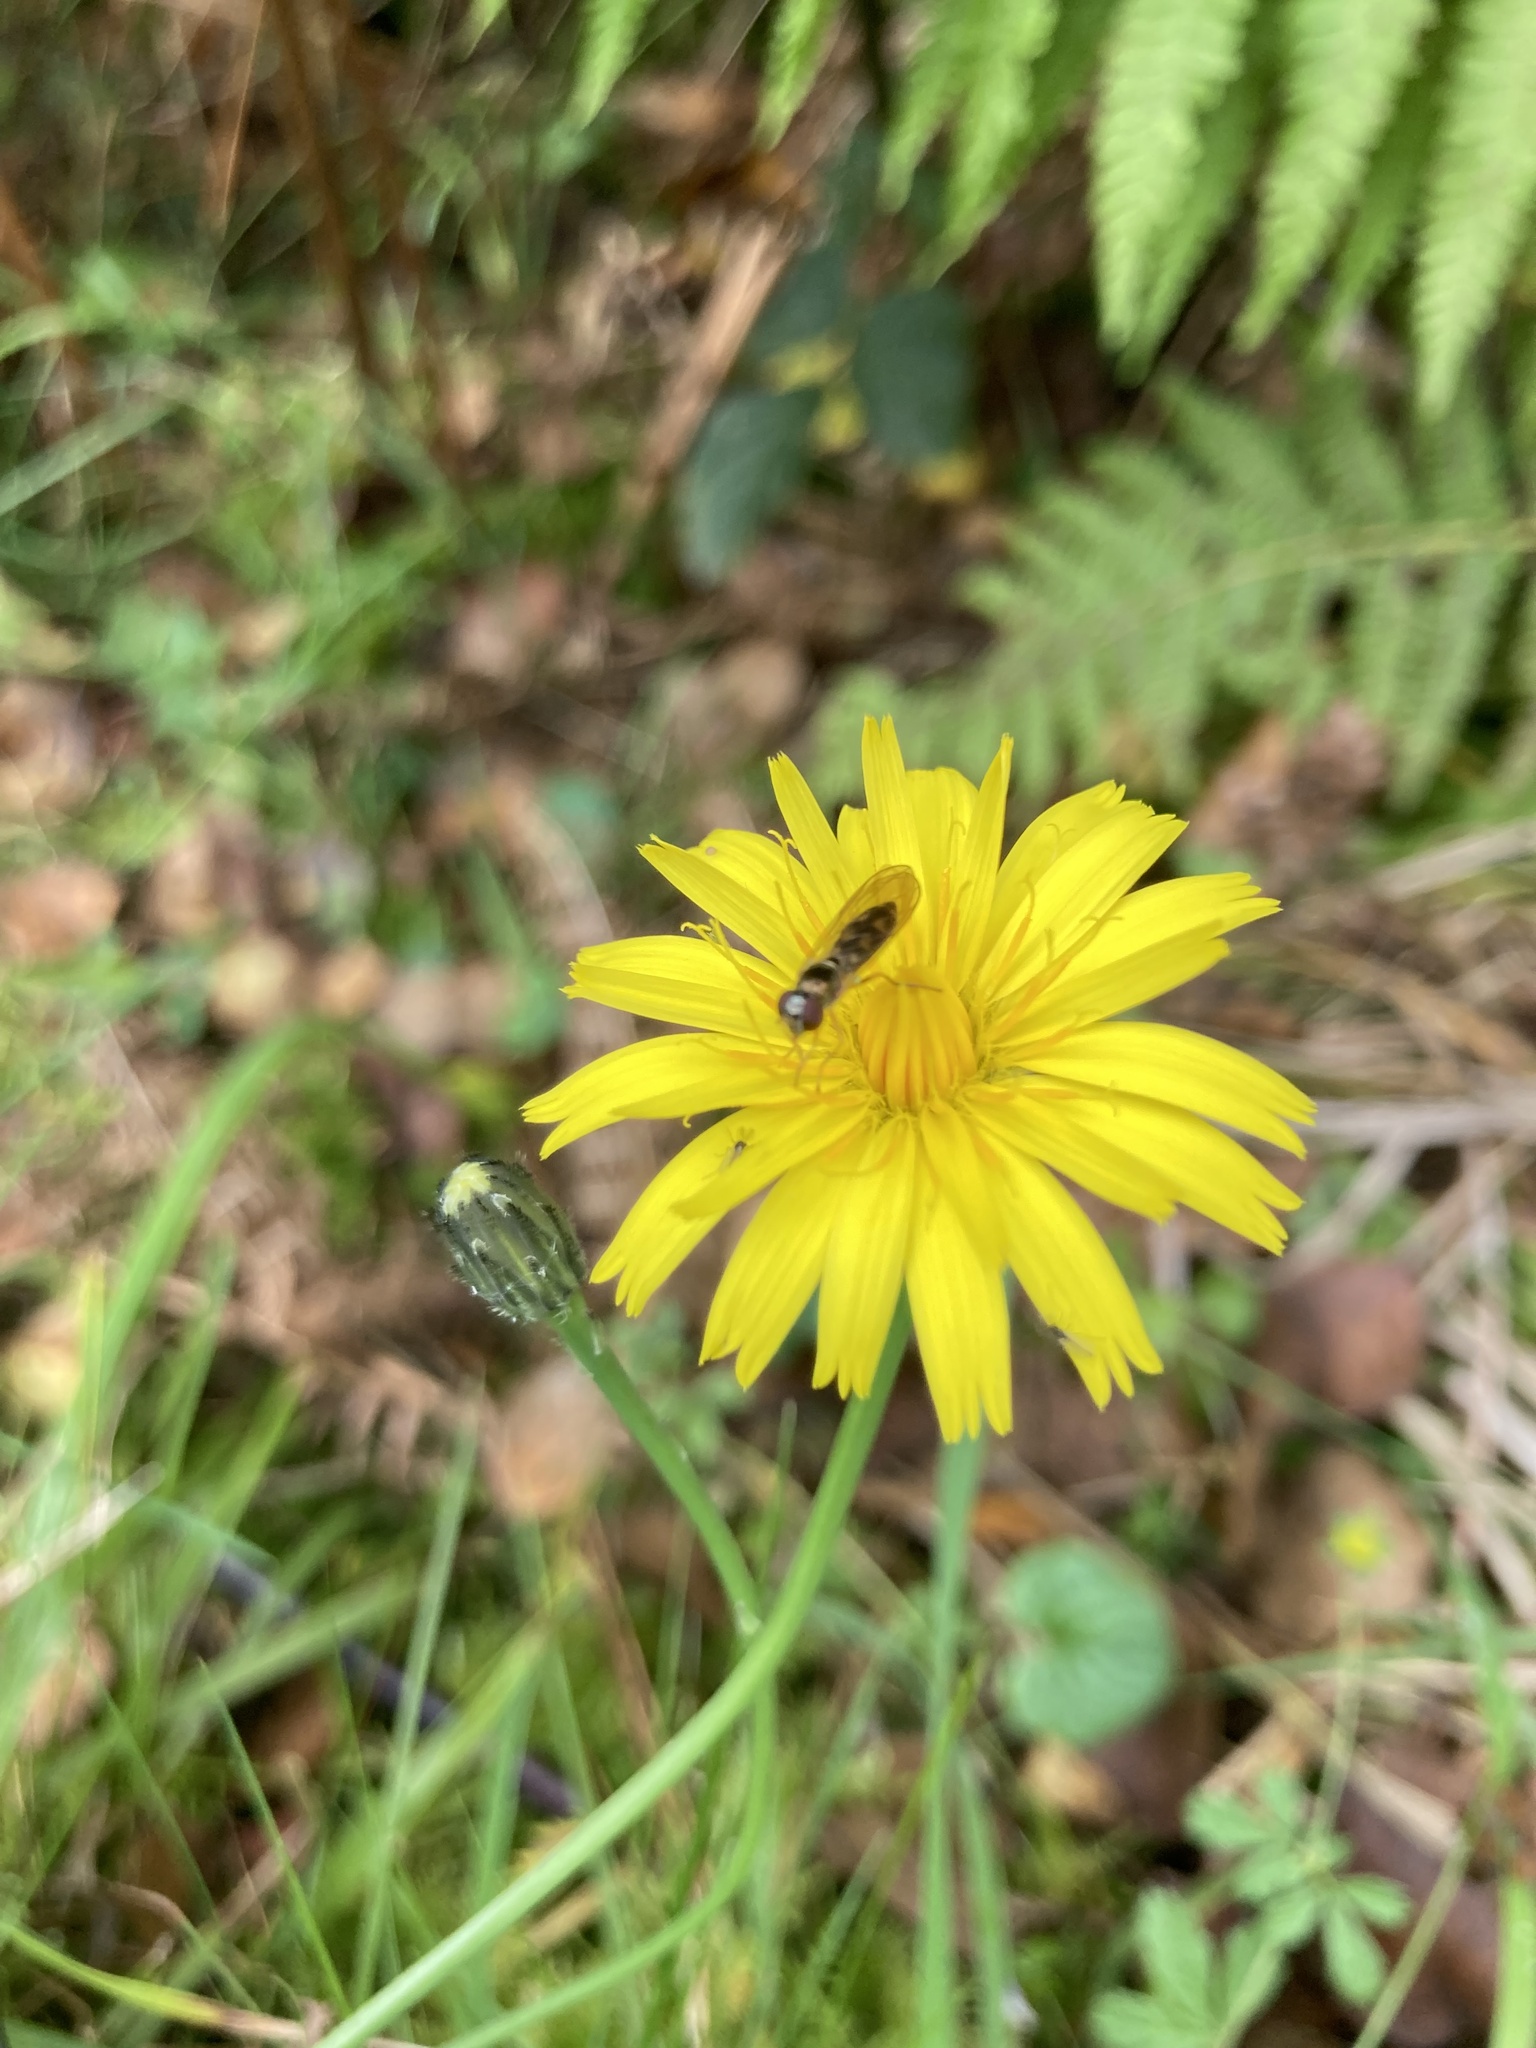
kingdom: Animalia
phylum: Arthropoda
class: Insecta
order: Diptera
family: Syrphidae
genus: Melanostoma
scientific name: Melanostoma scalare
